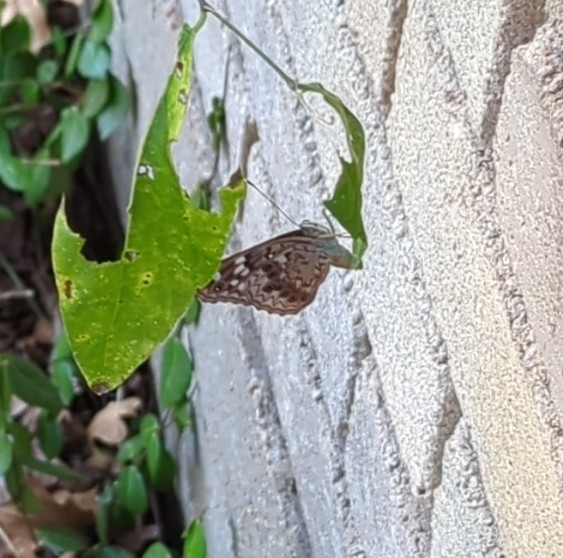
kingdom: Animalia
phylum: Arthropoda
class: Insecta
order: Lepidoptera
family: Nymphalidae
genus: Asterocampa
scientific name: Asterocampa celtis
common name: Hackberry emperor
